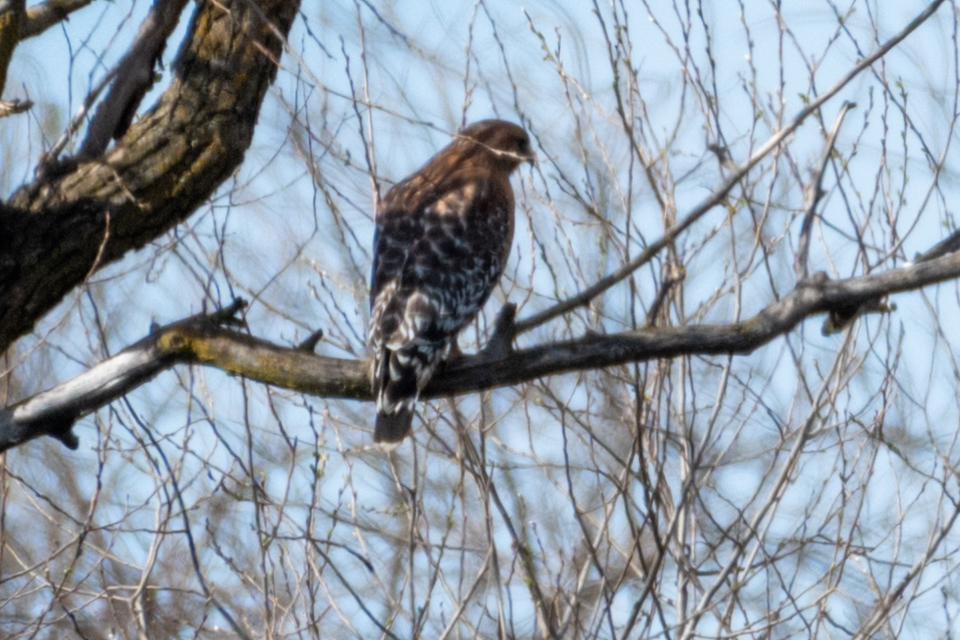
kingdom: Animalia
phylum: Chordata
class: Aves
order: Accipitriformes
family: Accipitridae
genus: Buteo
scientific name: Buteo lineatus
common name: Red-shouldered hawk
